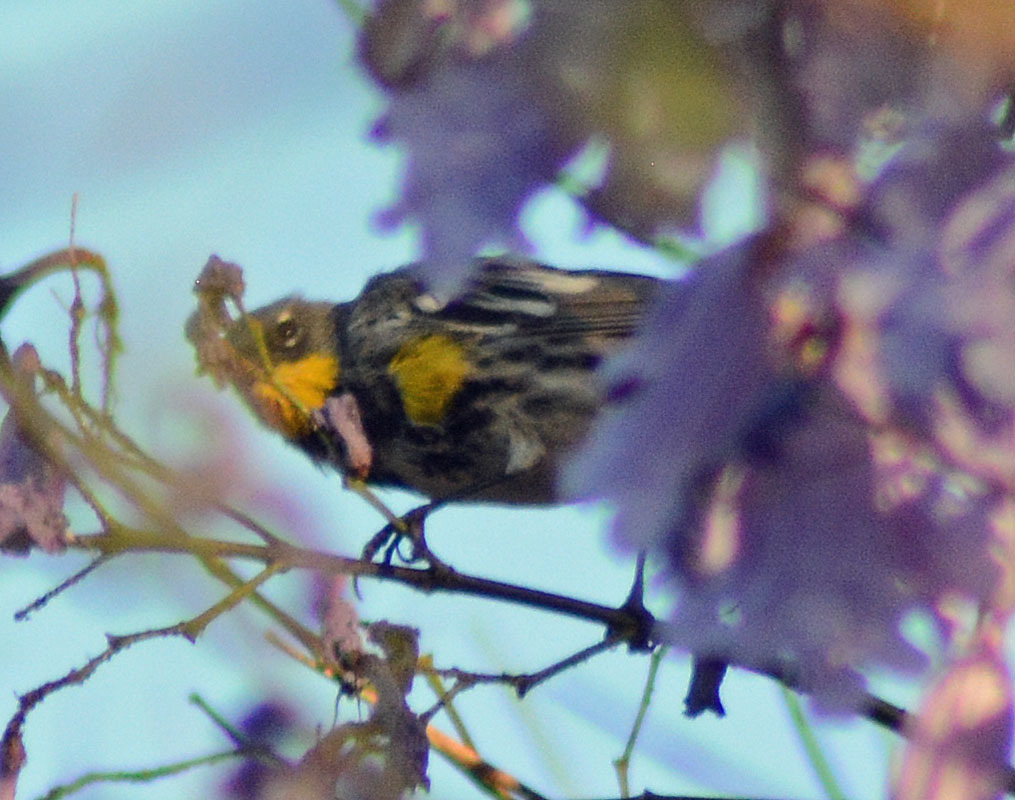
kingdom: Animalia
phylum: Chordata
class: Aves
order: Passeriformes
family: Parulidae
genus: Setophaga
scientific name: Setophaga auduboni
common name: Audubon's warbler
